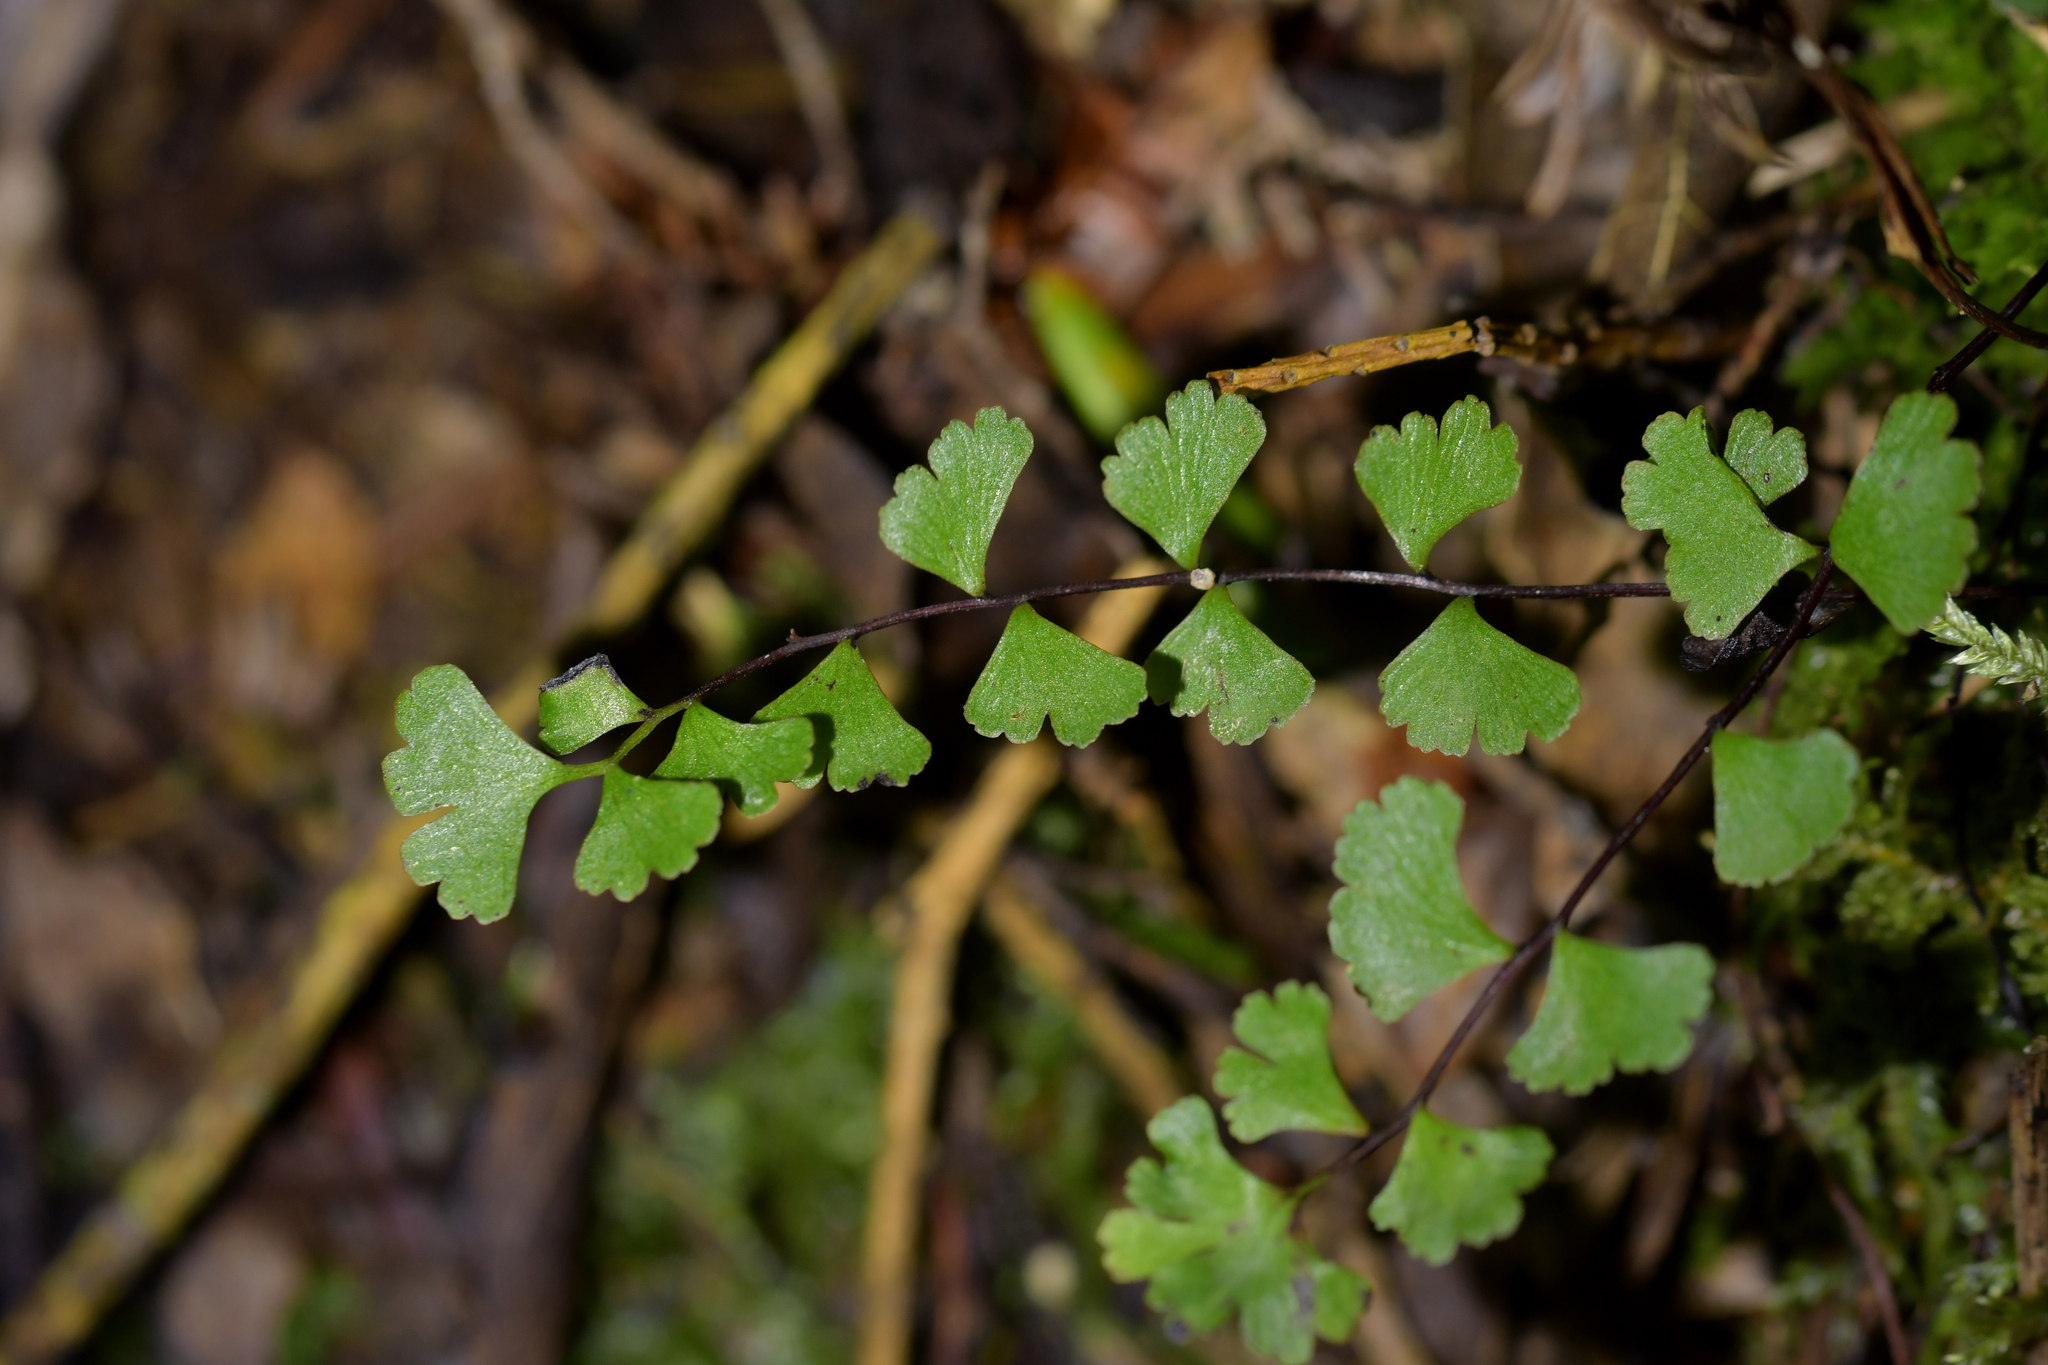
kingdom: Plantae
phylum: Tracheophyta
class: Polypodiopsida
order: Polypodiales
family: Lindsaeaceae
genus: Lindsaea
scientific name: Lindsaea linearis
